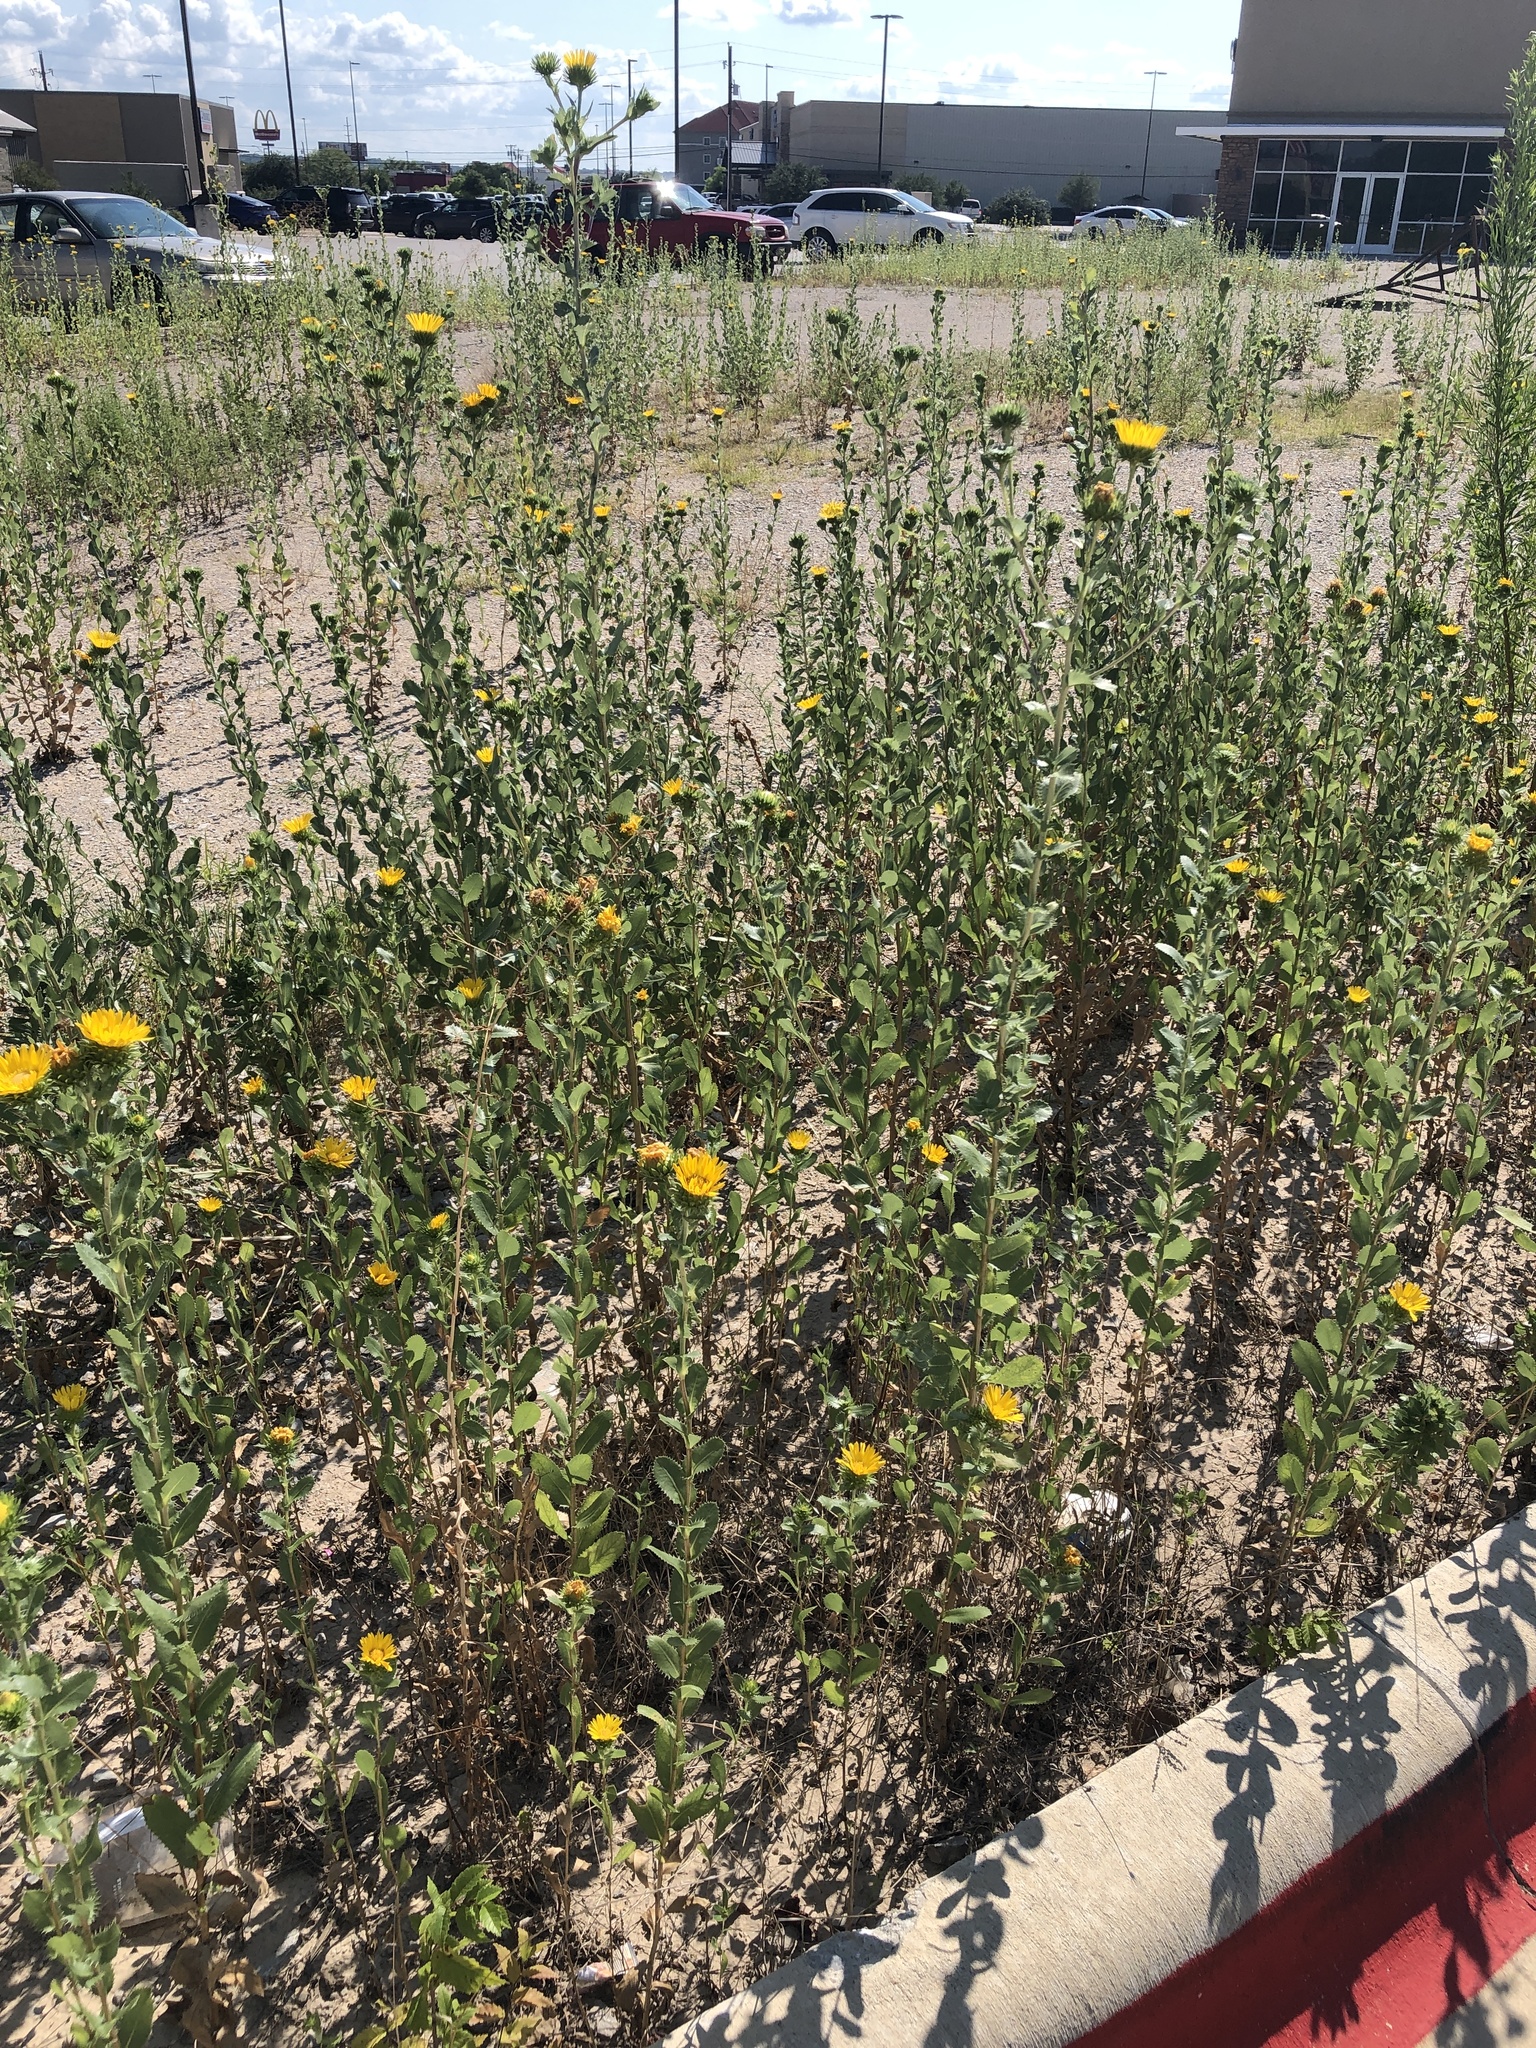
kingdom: Plantae
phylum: Tracheophyta
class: Magnoliopsida
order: Asterales
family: Asteraceae
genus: Grindelia
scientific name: Grindelia ciliata
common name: Goldenweed
